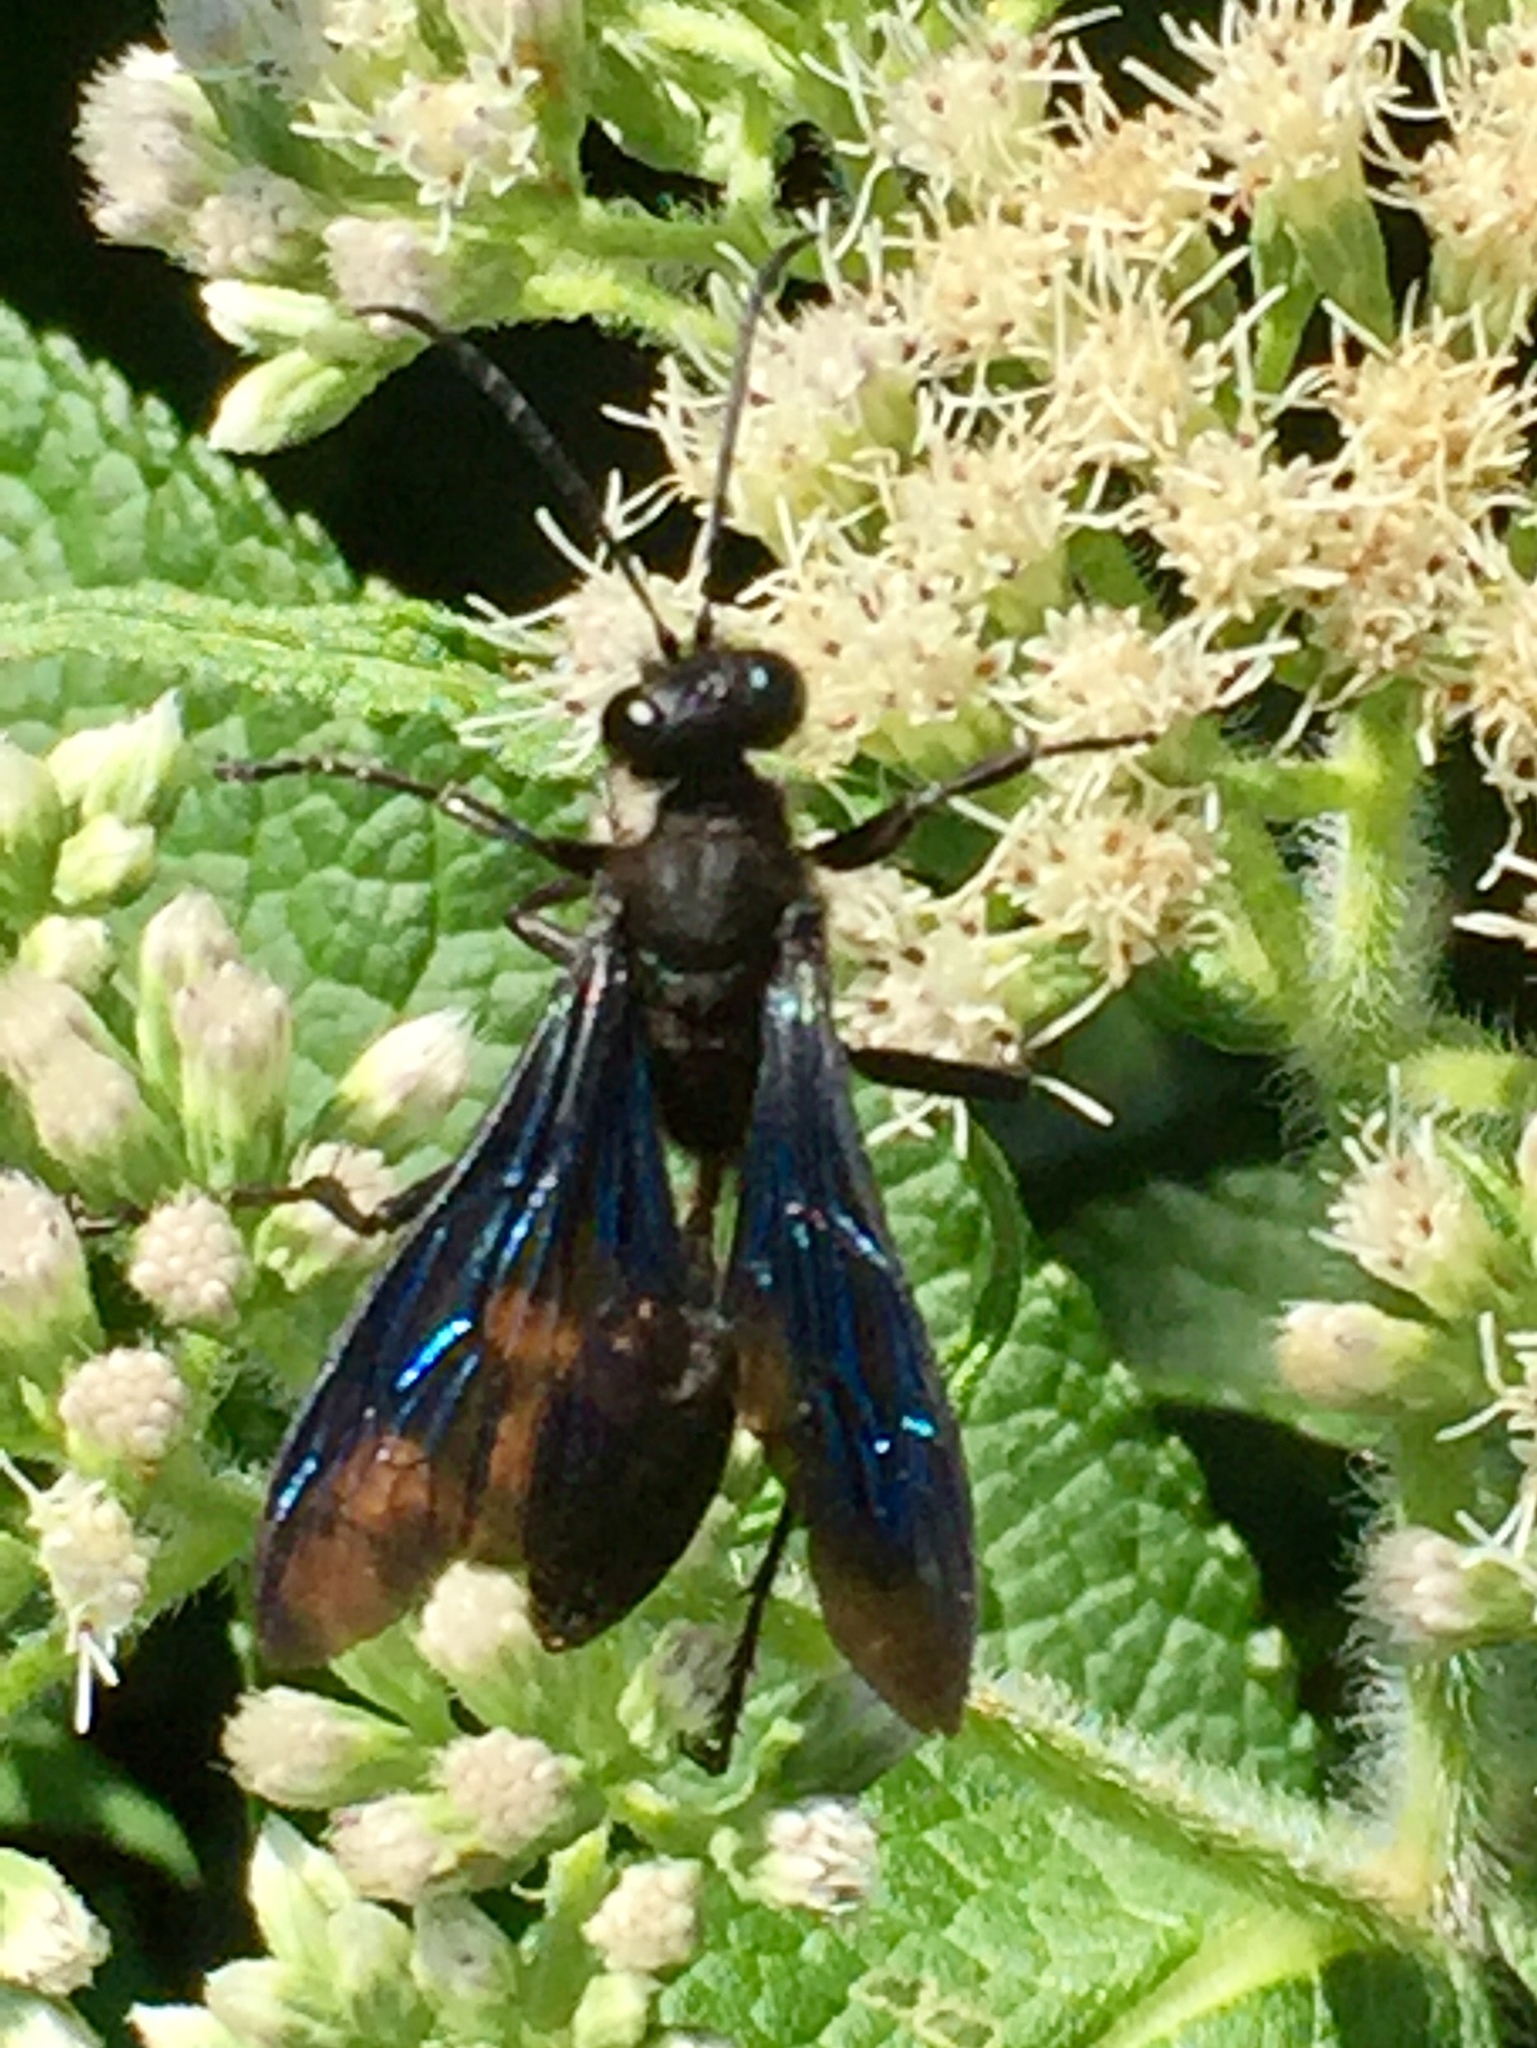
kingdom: Animalia
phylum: Arthropoda
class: Insecta
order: Hymenoptera
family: Sphecidae
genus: Sphex
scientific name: Sphex pensylvanicus
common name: Great black digger wasp
